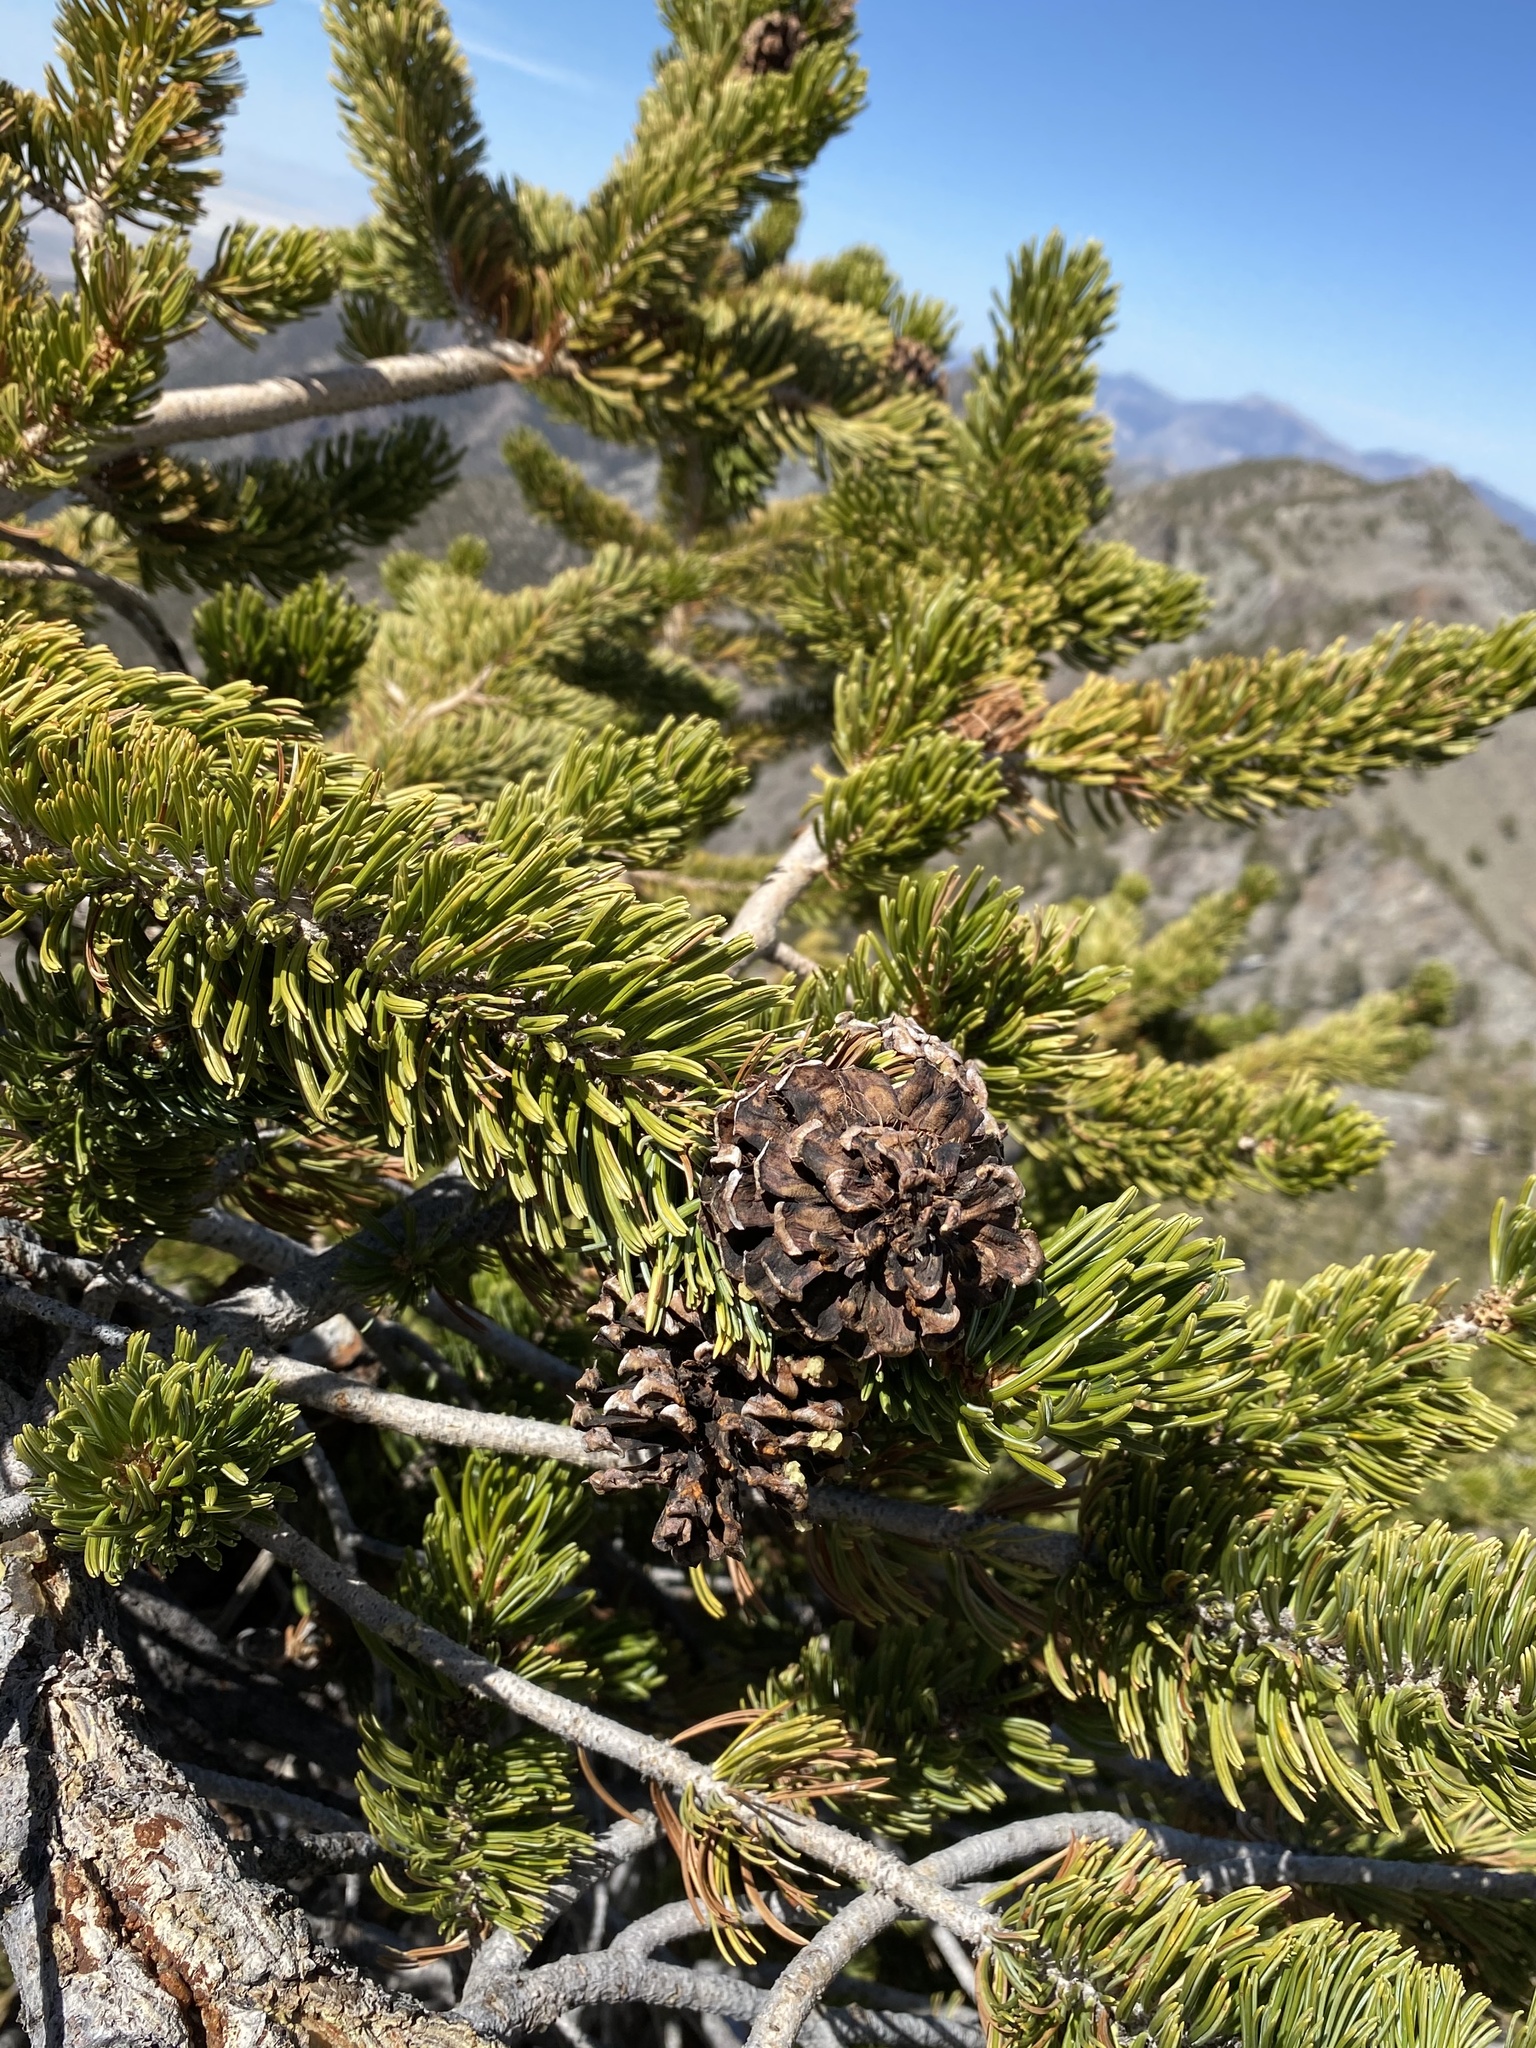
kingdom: Plantae
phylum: Tracheophyta
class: Pinopsida
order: Pinales
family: Pinaceae
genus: Pinus
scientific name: Pinus longaeva
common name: Intermountain bristlecone pine
